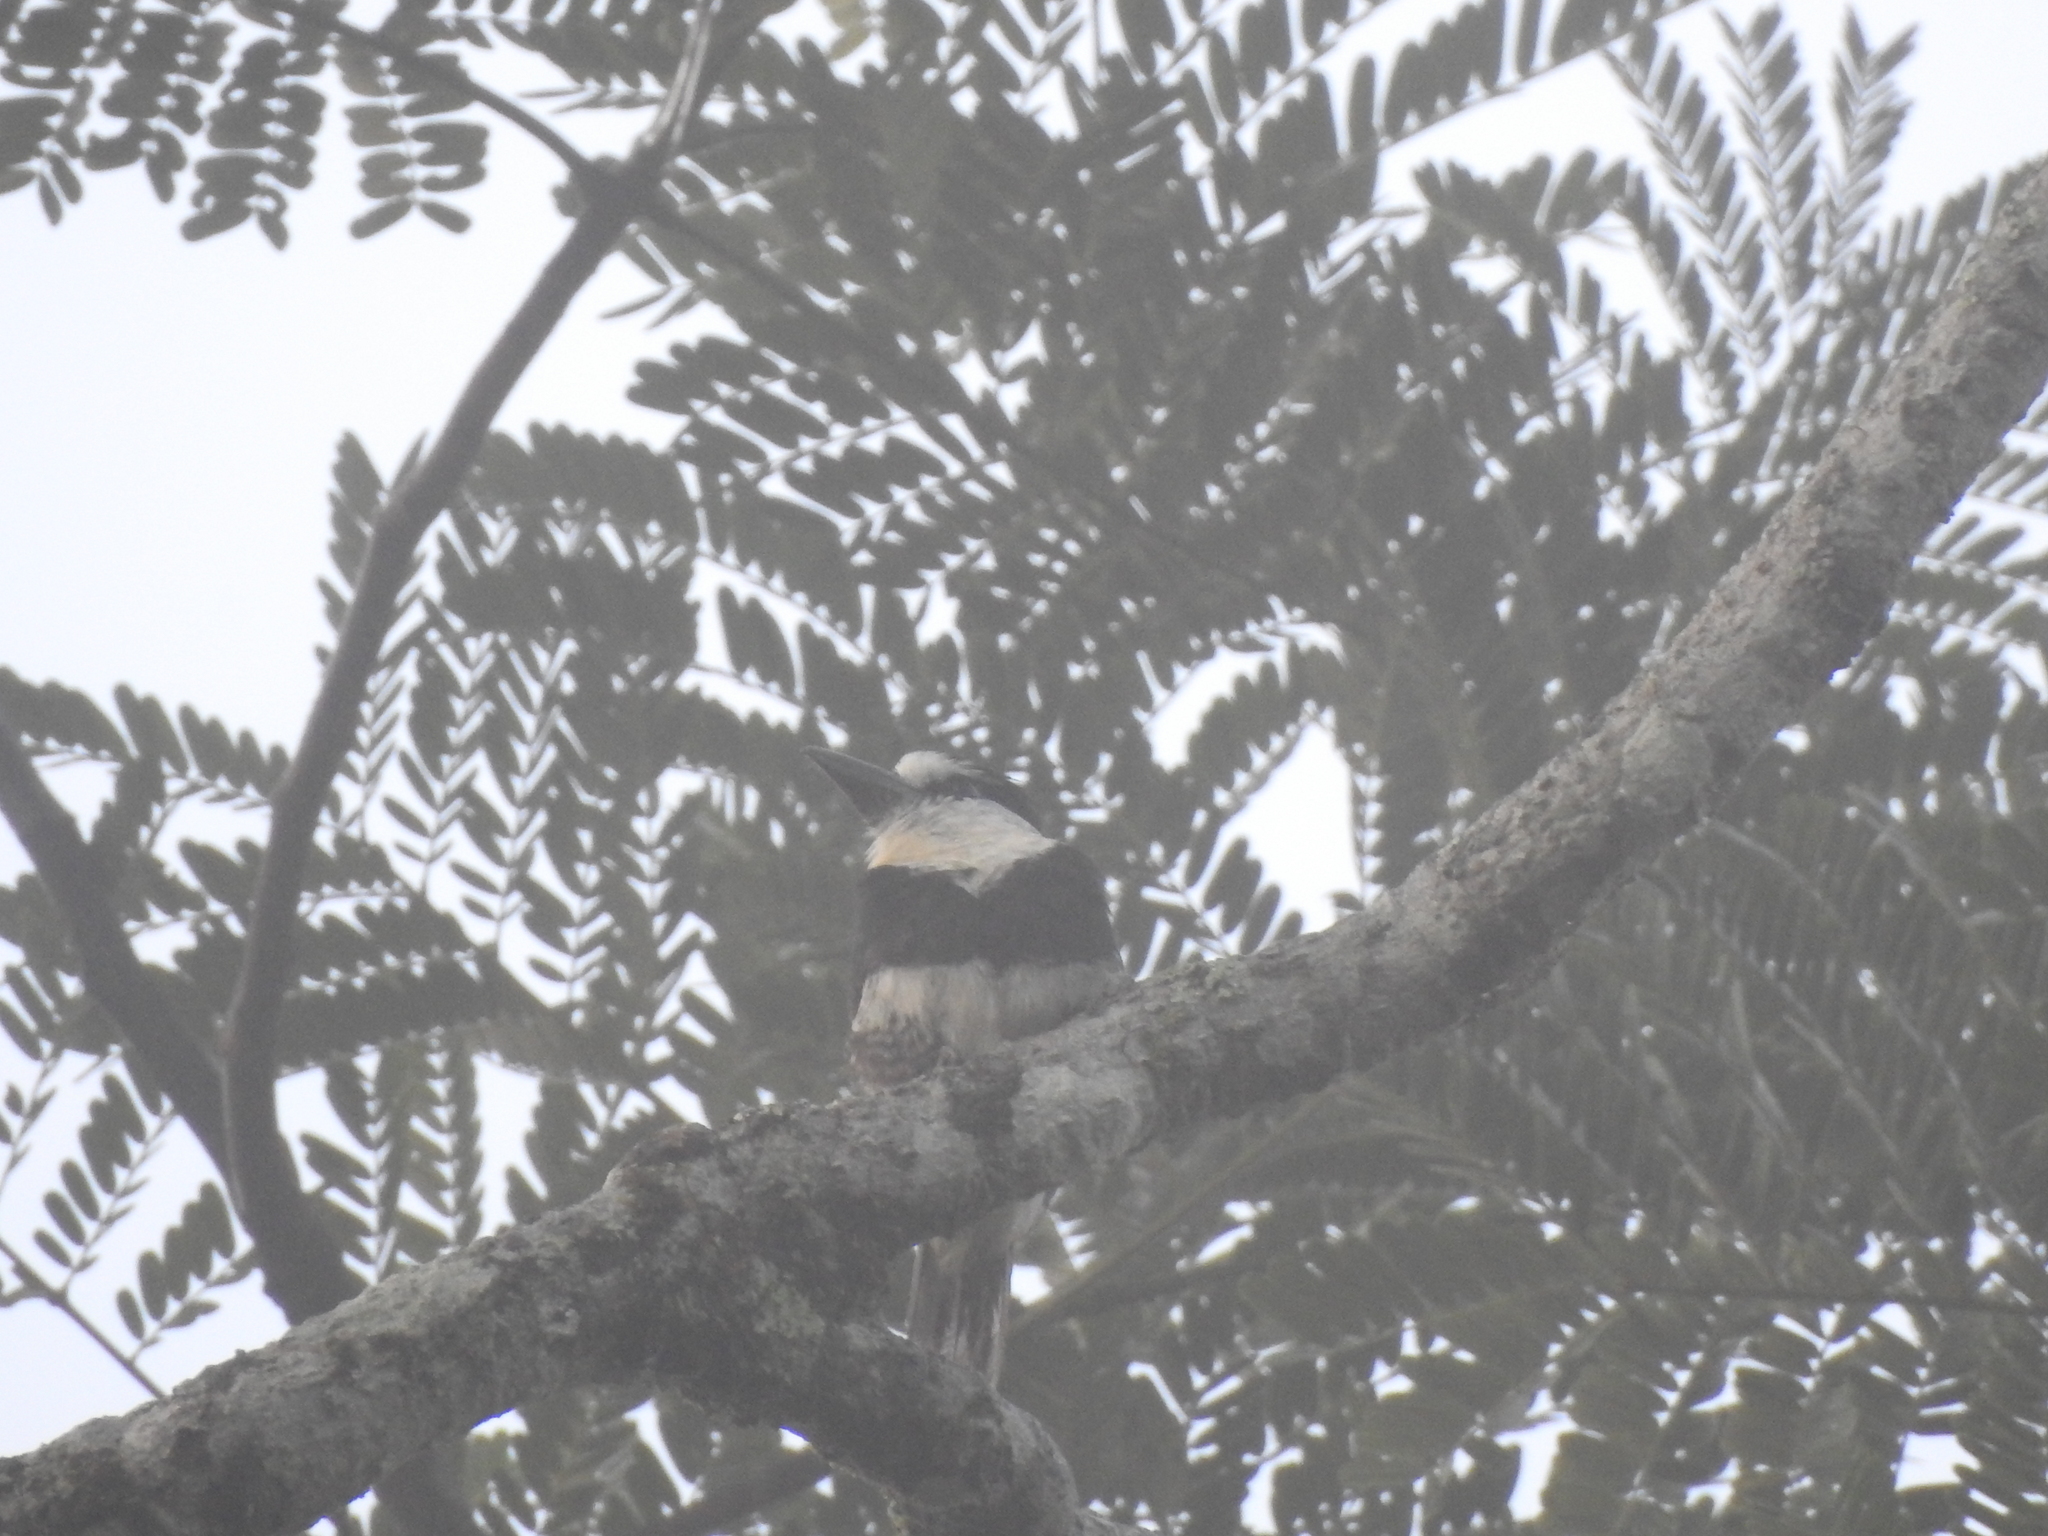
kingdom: Animalia
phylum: Chordata
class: Aves
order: Piciformes
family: Bucconidae
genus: Notharchus
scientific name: Notharchus hyperrhynchus
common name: White-necked puffbird
